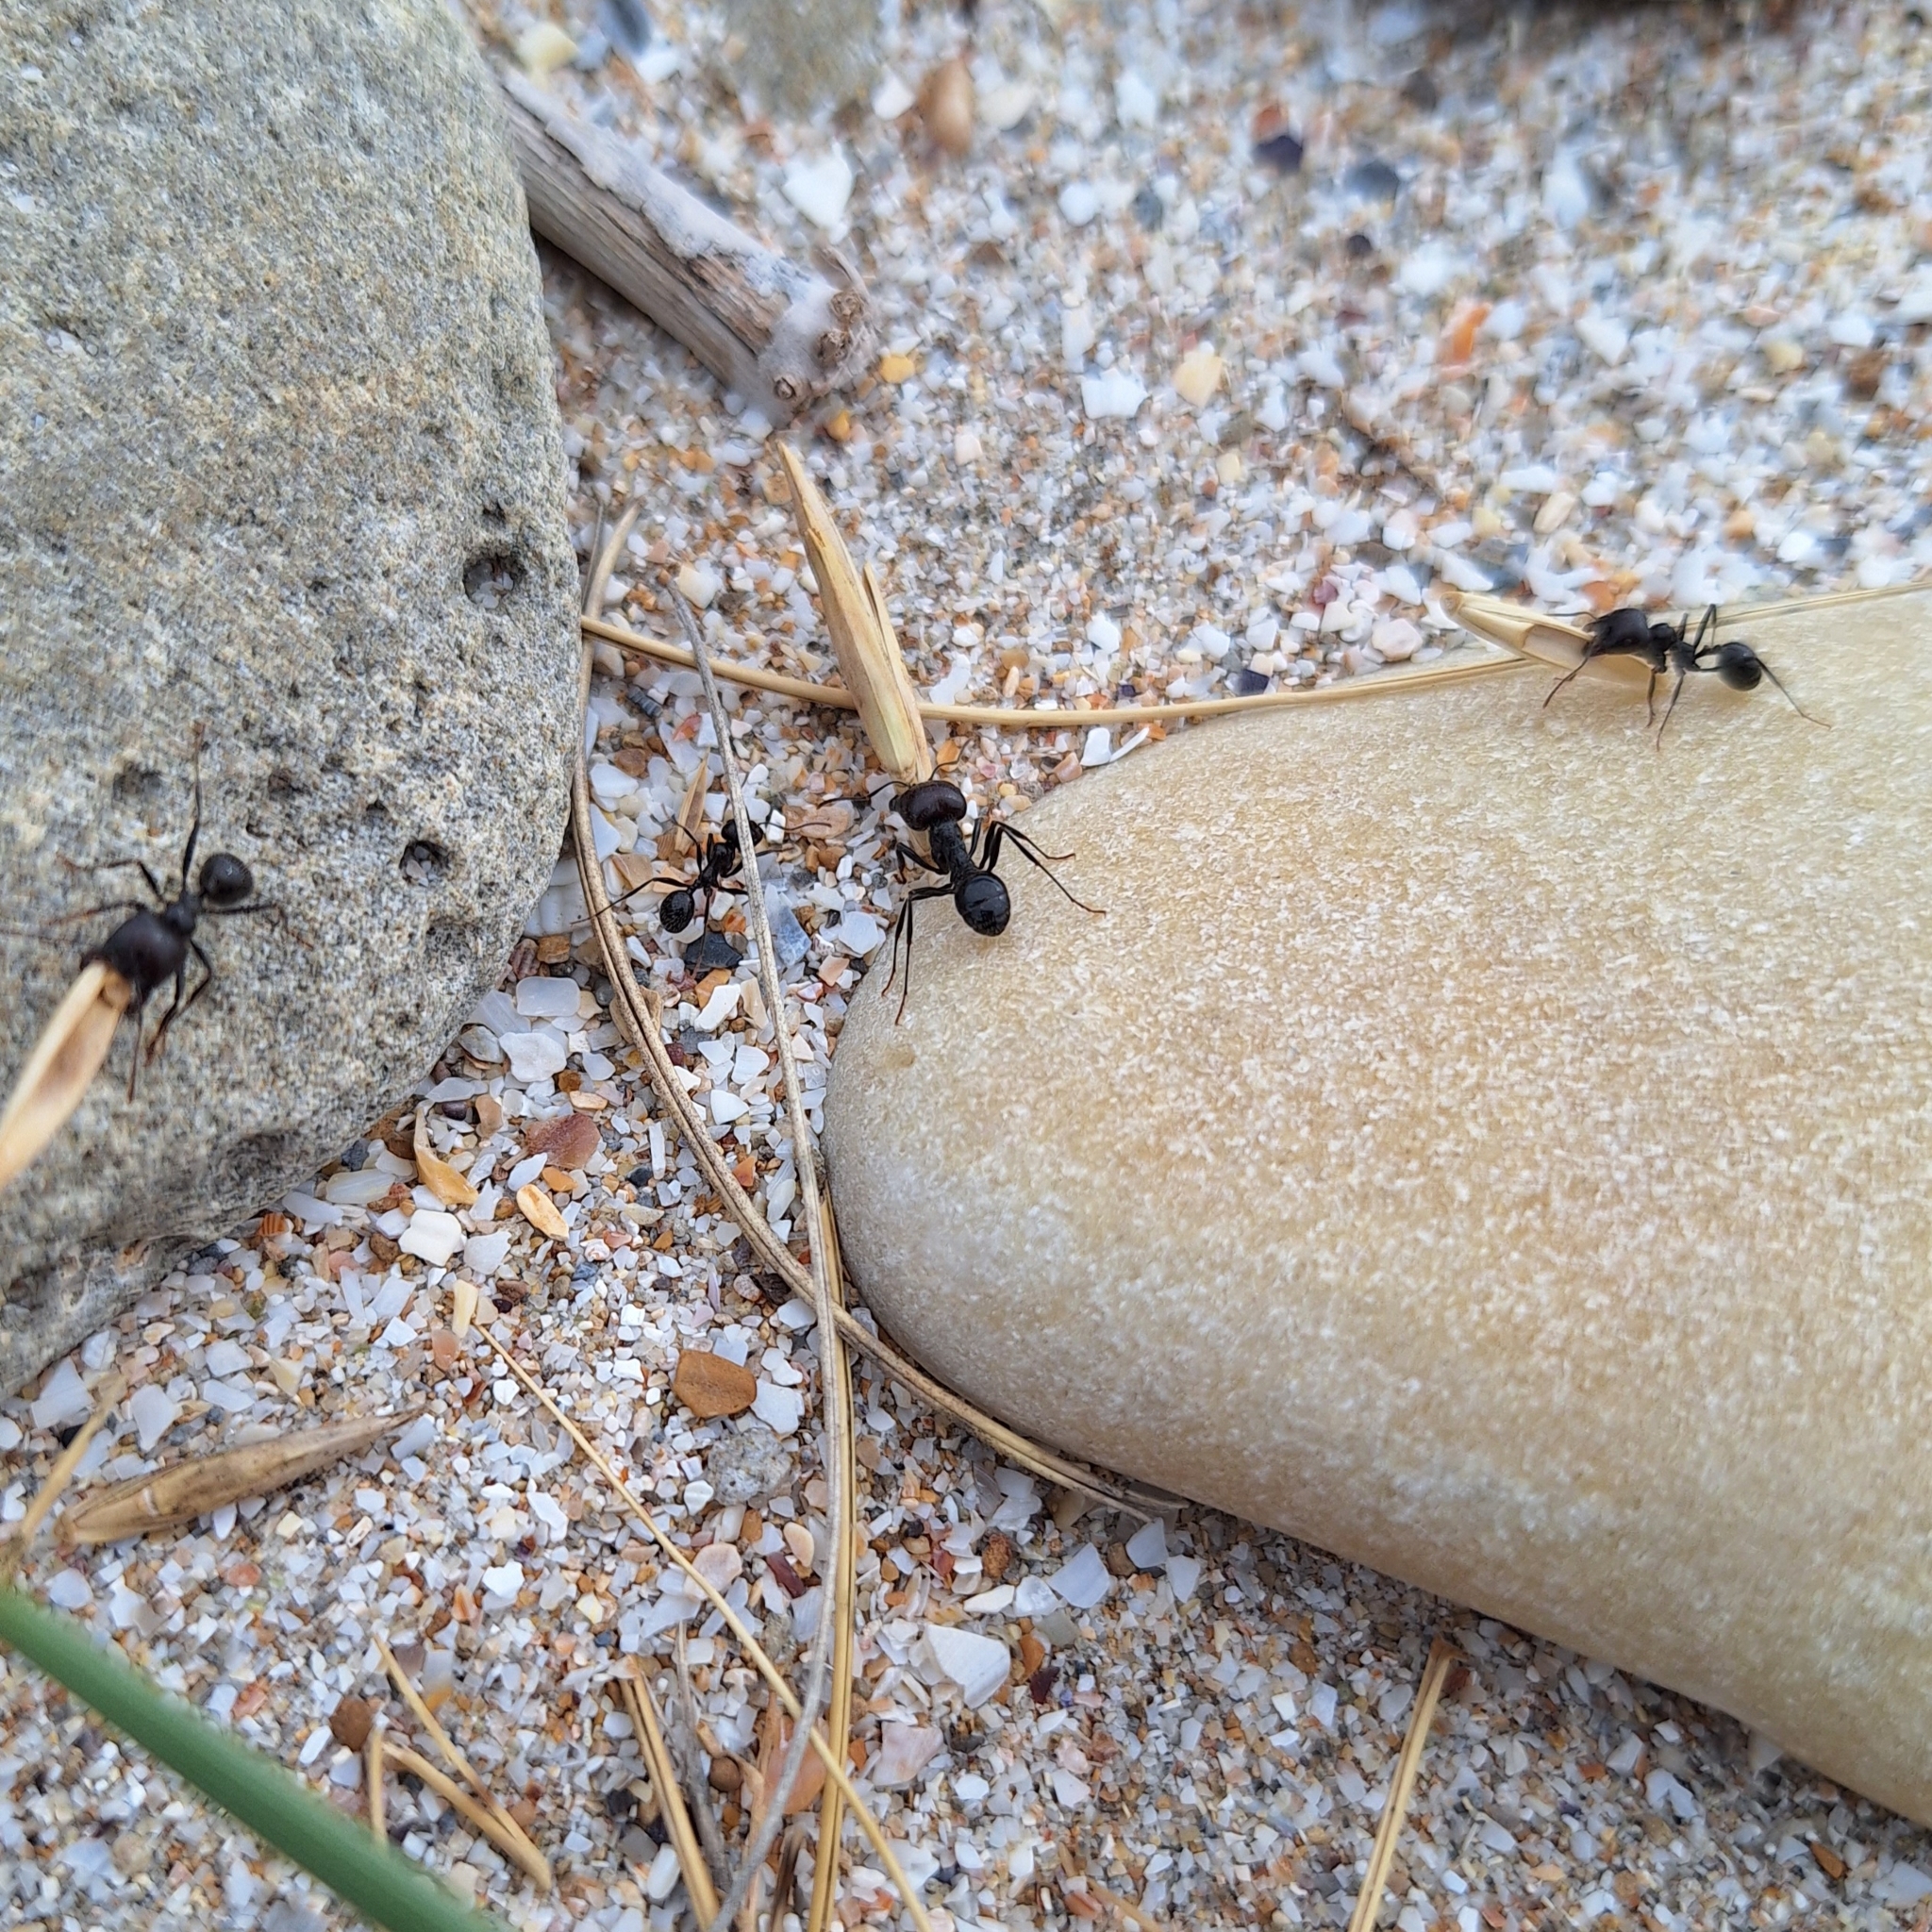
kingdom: Animalia
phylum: Arthropoda
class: Insecta
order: Hymenoptera
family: Formicidae
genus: Messor
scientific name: Messor barbarus
